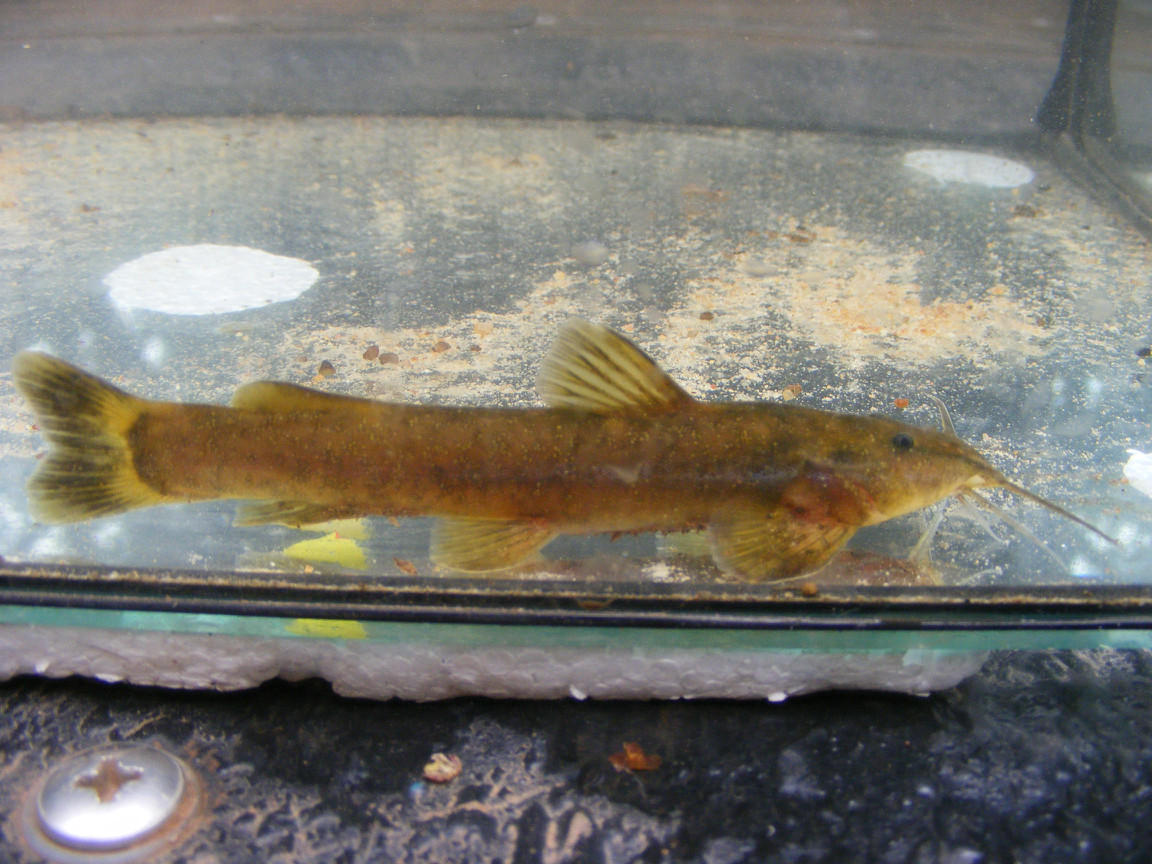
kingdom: Animalia
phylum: Chordata
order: Siluriformes
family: Amphiliidae
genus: Amphilius
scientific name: Amphilius uranoscopus
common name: Stargazer mountain catfish
